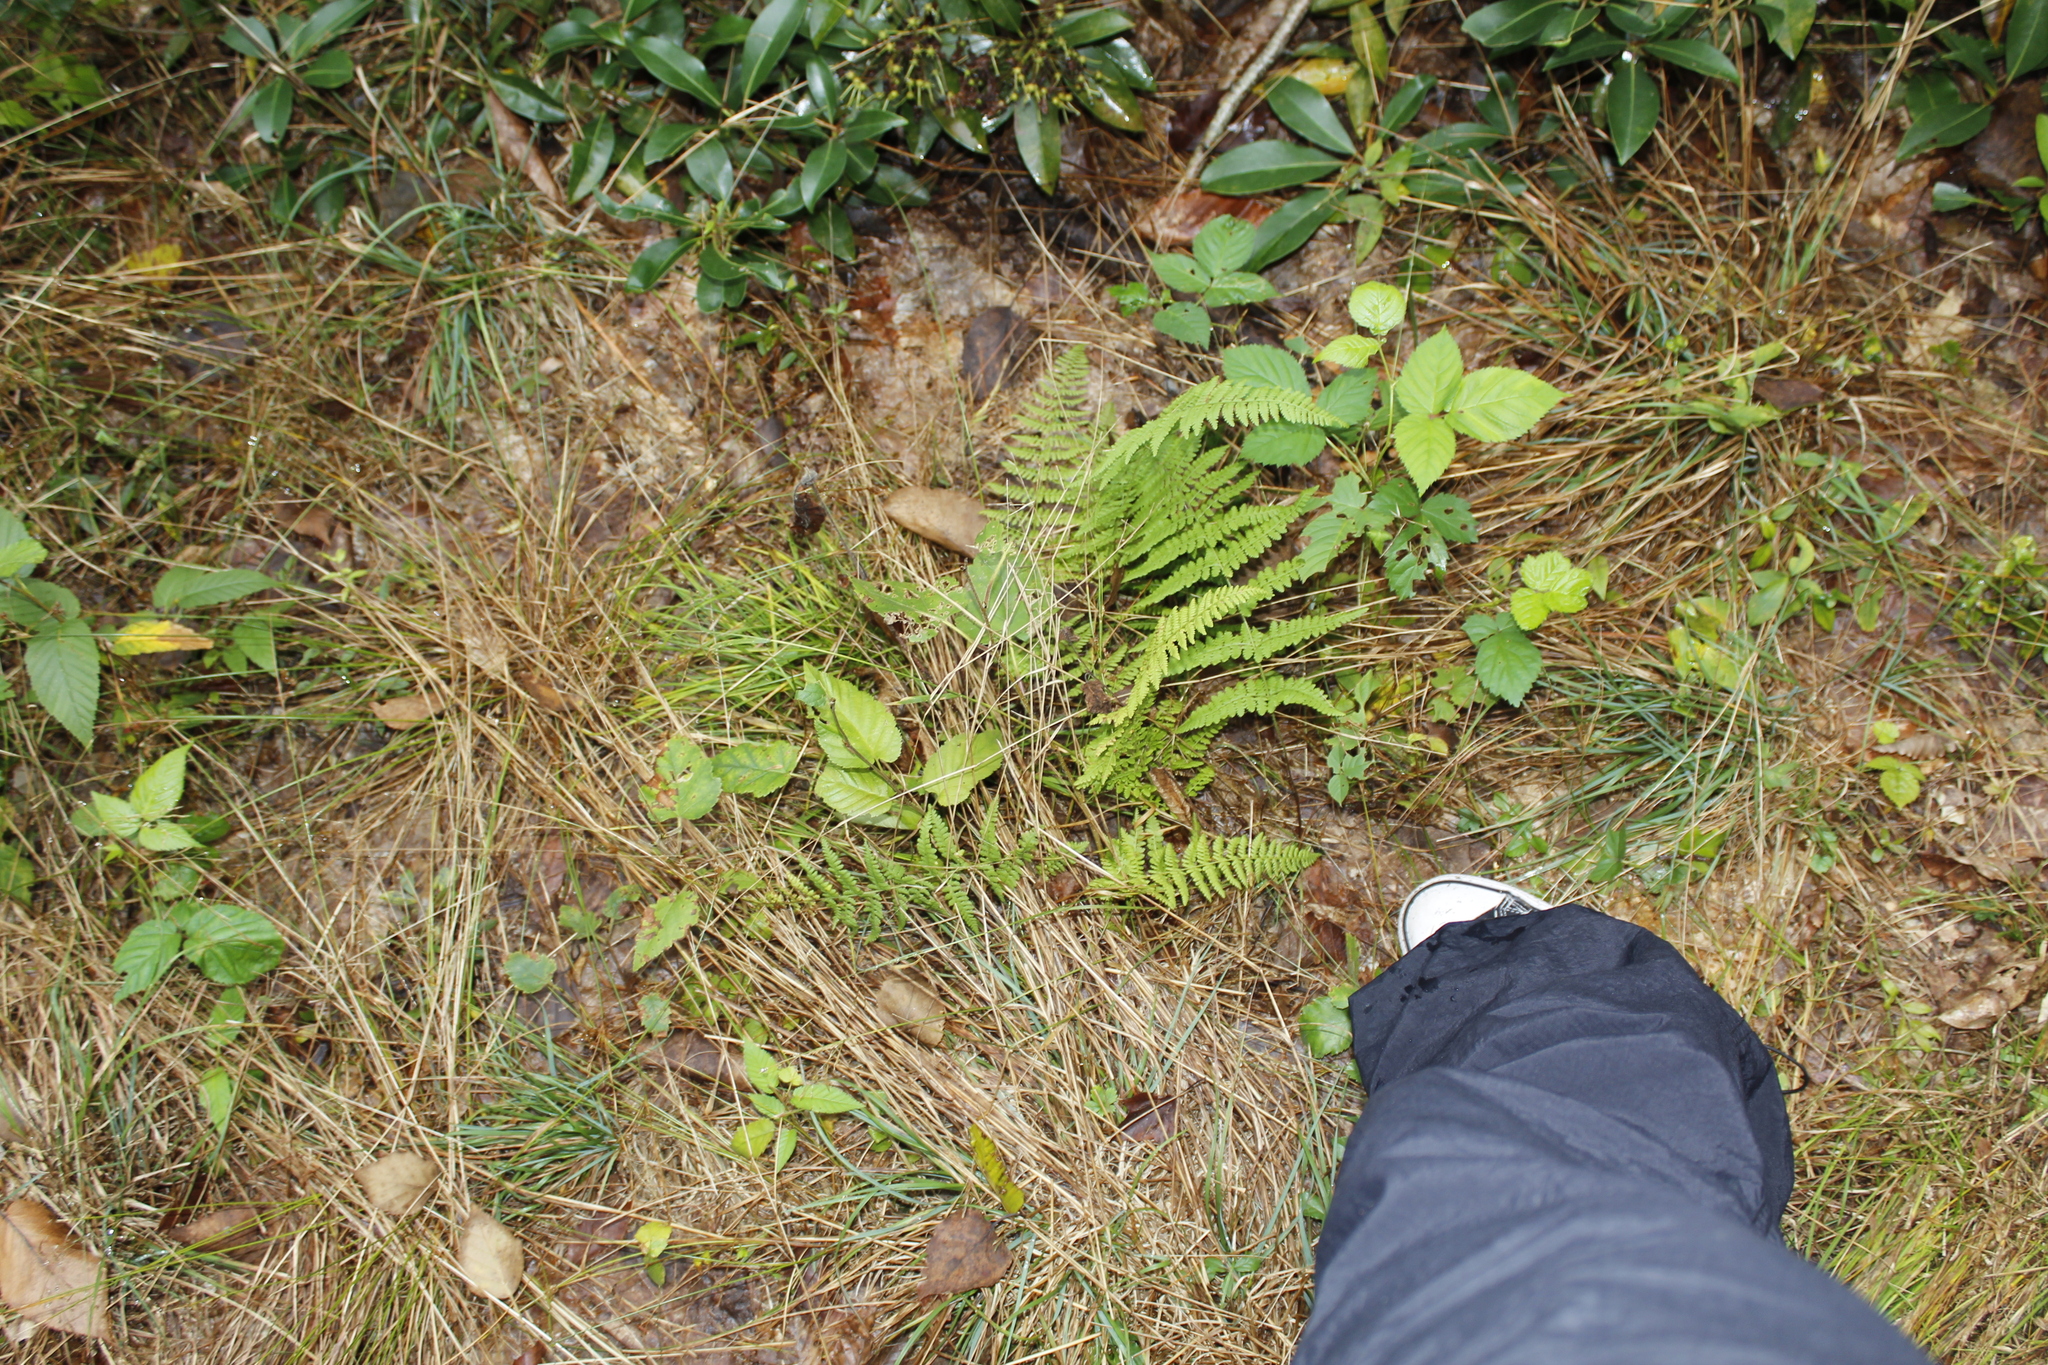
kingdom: Plantae
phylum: Tracheophyta
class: Polypodiopsida
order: Polypodiales
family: Dennstaedtiaceae
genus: Sitobolium
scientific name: Sitobolium punctilobum
